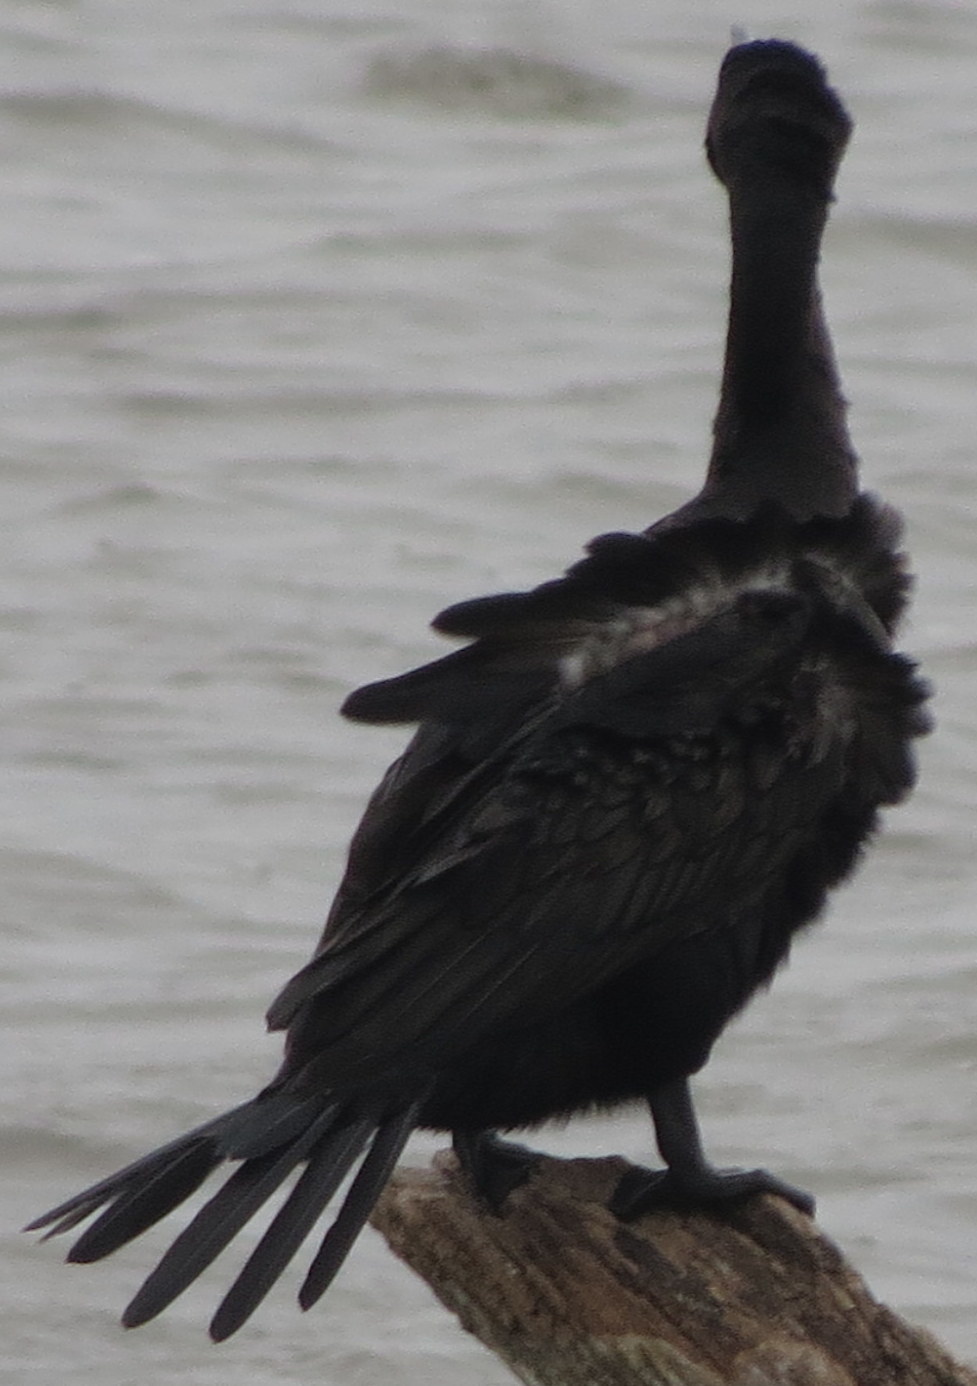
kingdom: Animalia
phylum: Chordata
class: Aves
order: Suliformes
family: Phalacrocoracidae
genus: Phalacrocorax
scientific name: Phalacrocorax auritus
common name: Double-crested cormorant
